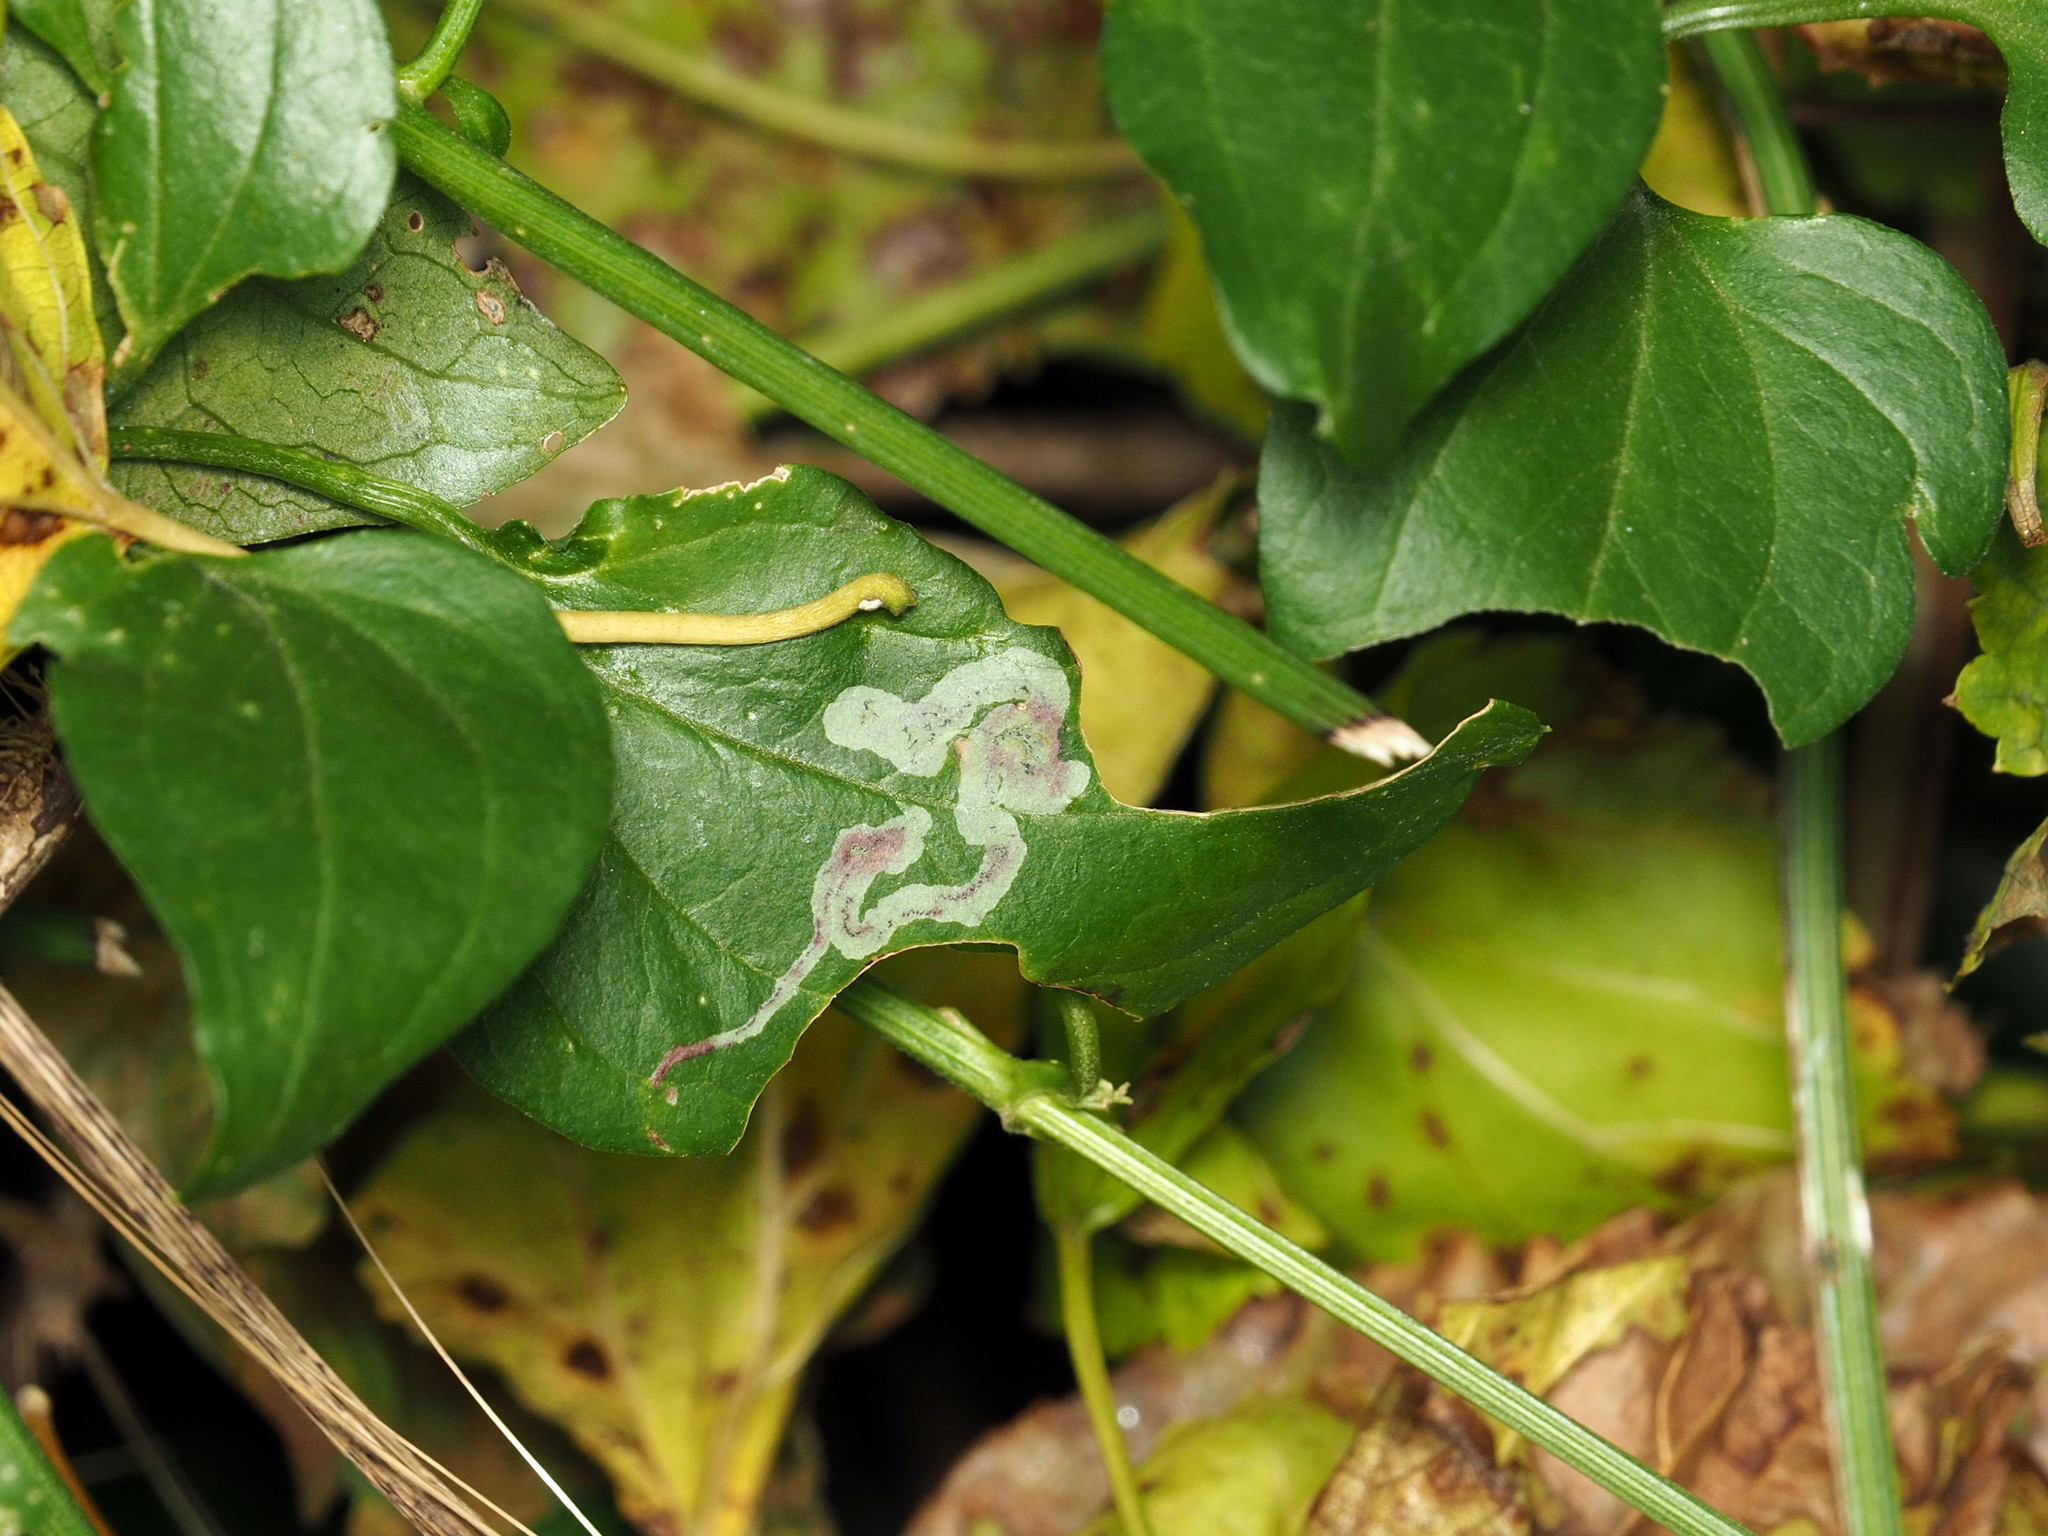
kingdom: Animalia
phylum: Arthropoda
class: Insecta
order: Diptera
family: Agromyzidae
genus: Phytomyza
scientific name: Phytomyza loewii
